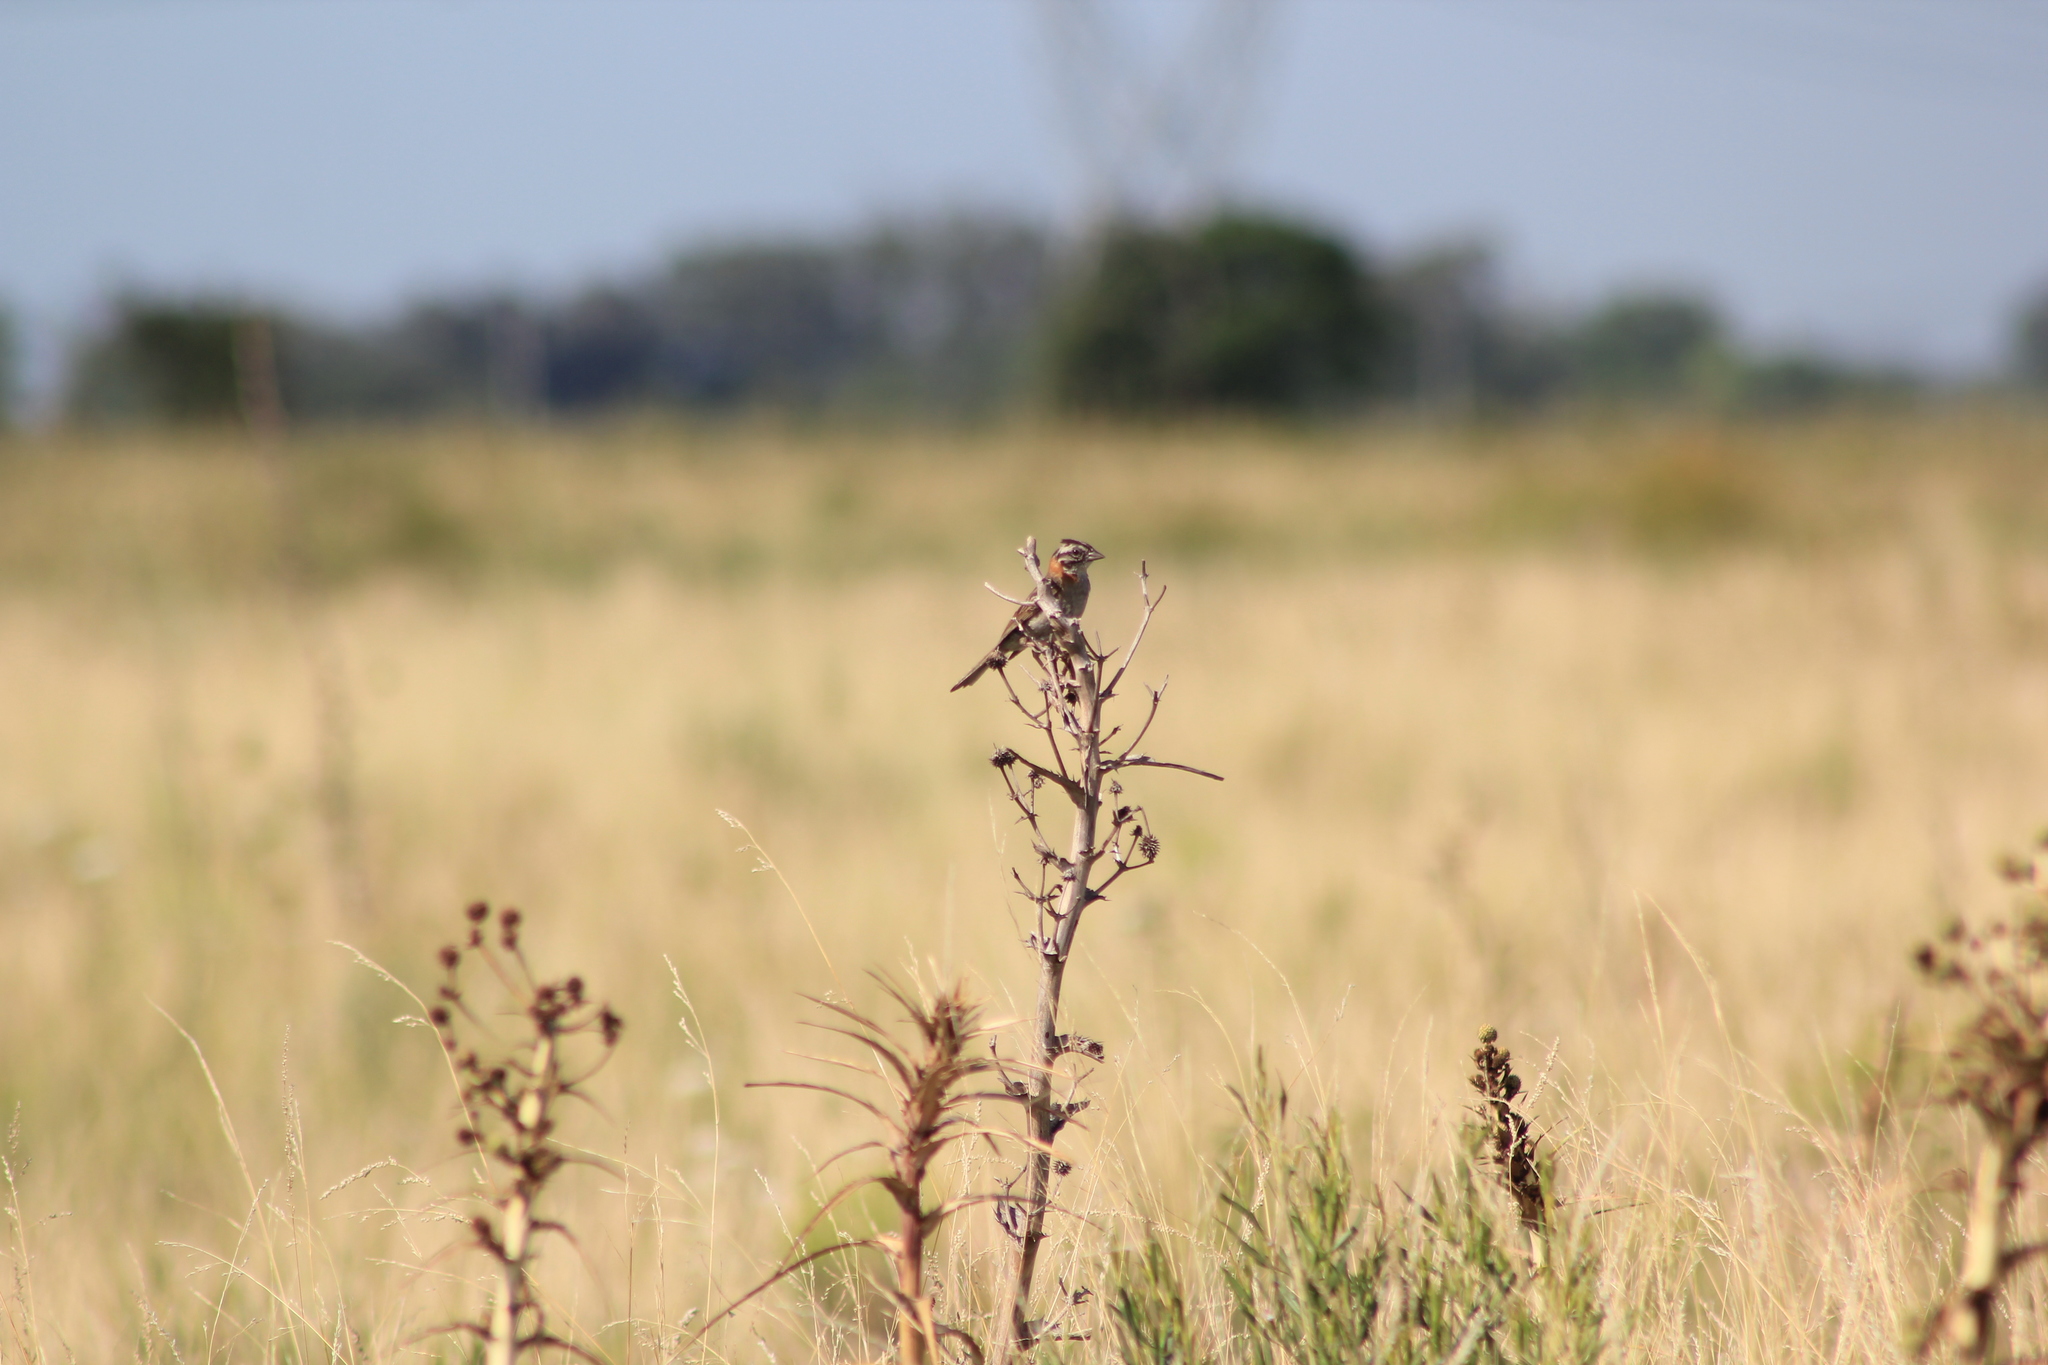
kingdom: Animalia
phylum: Chordata
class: Aves
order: Passeriformes
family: Passerellidae
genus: Zonotrichia
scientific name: Zonotrichia capensis
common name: Rufous-collared sparrow
